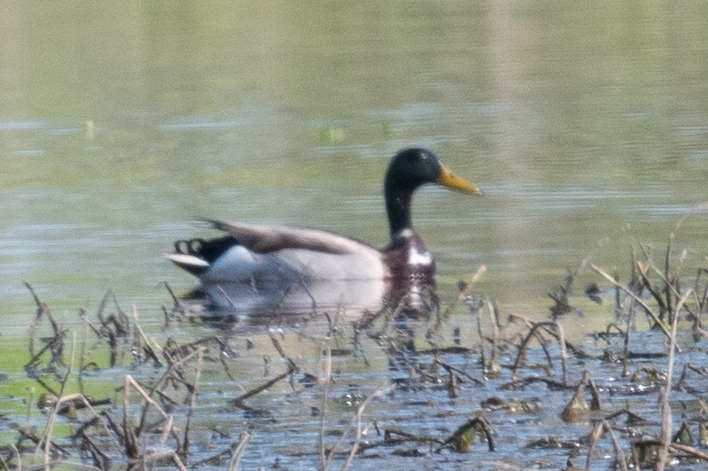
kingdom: Animalia
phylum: Chordata
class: Aves
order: Anseriformes
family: Anatidae
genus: Anas
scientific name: Anas platyrhynchos
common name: Mallard
